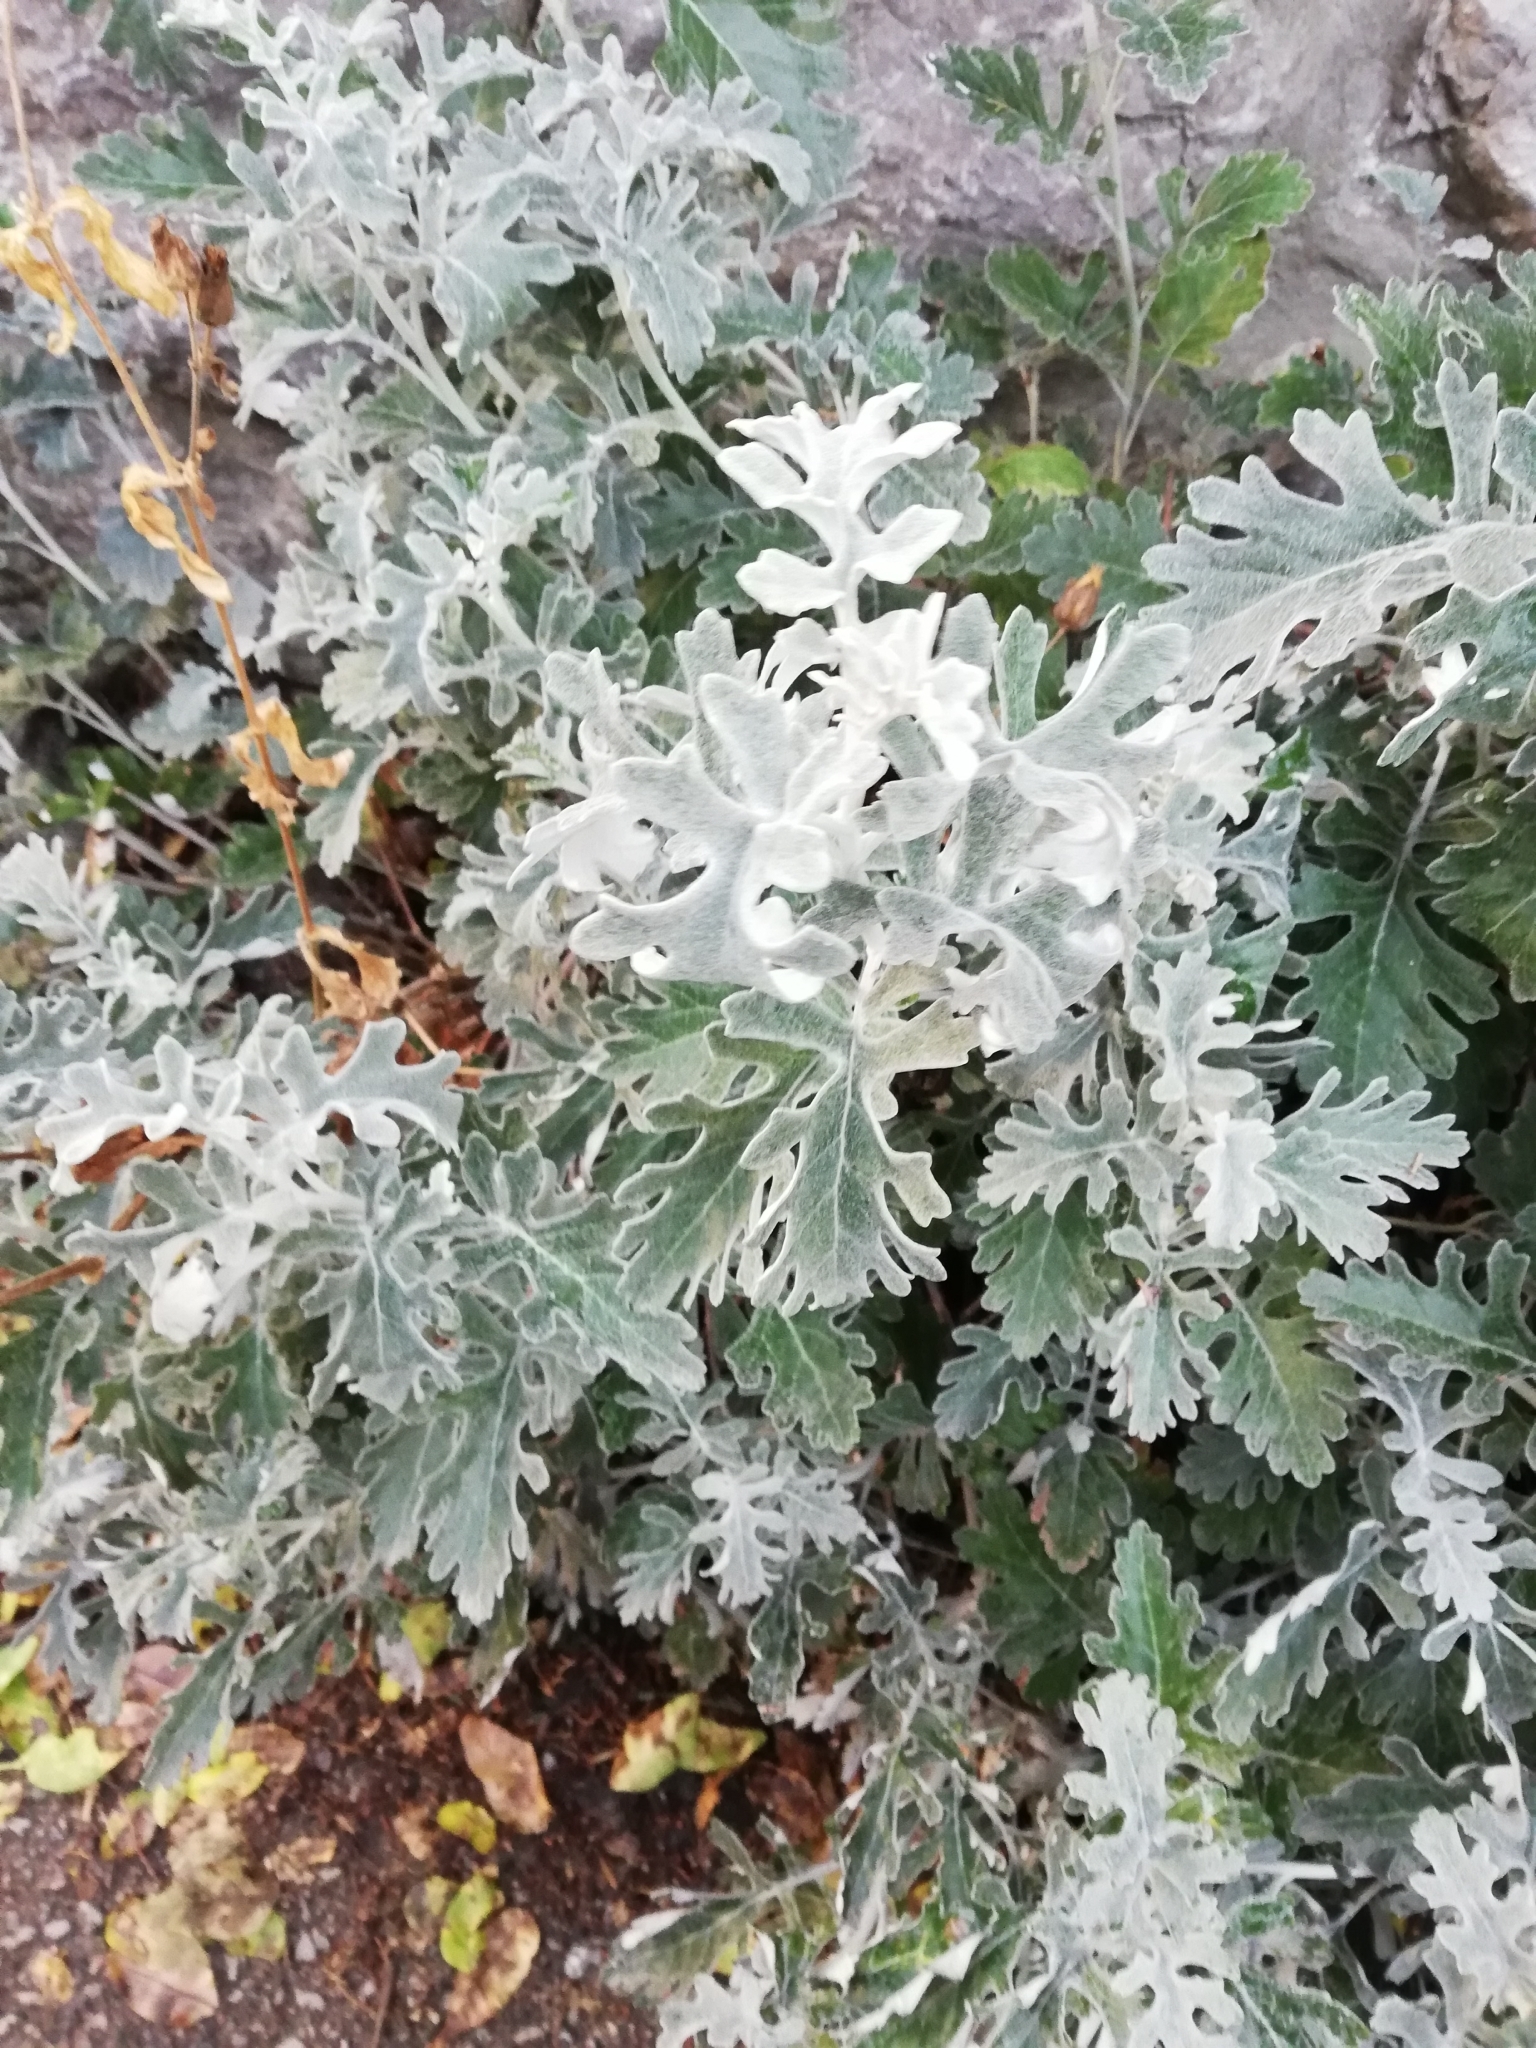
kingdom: Plantae
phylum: Tracheophyta
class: Magnoliopsida
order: Asterales
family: Asteraceae
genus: Jacobaea
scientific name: Jacobaea maritima
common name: Silver ragwort
